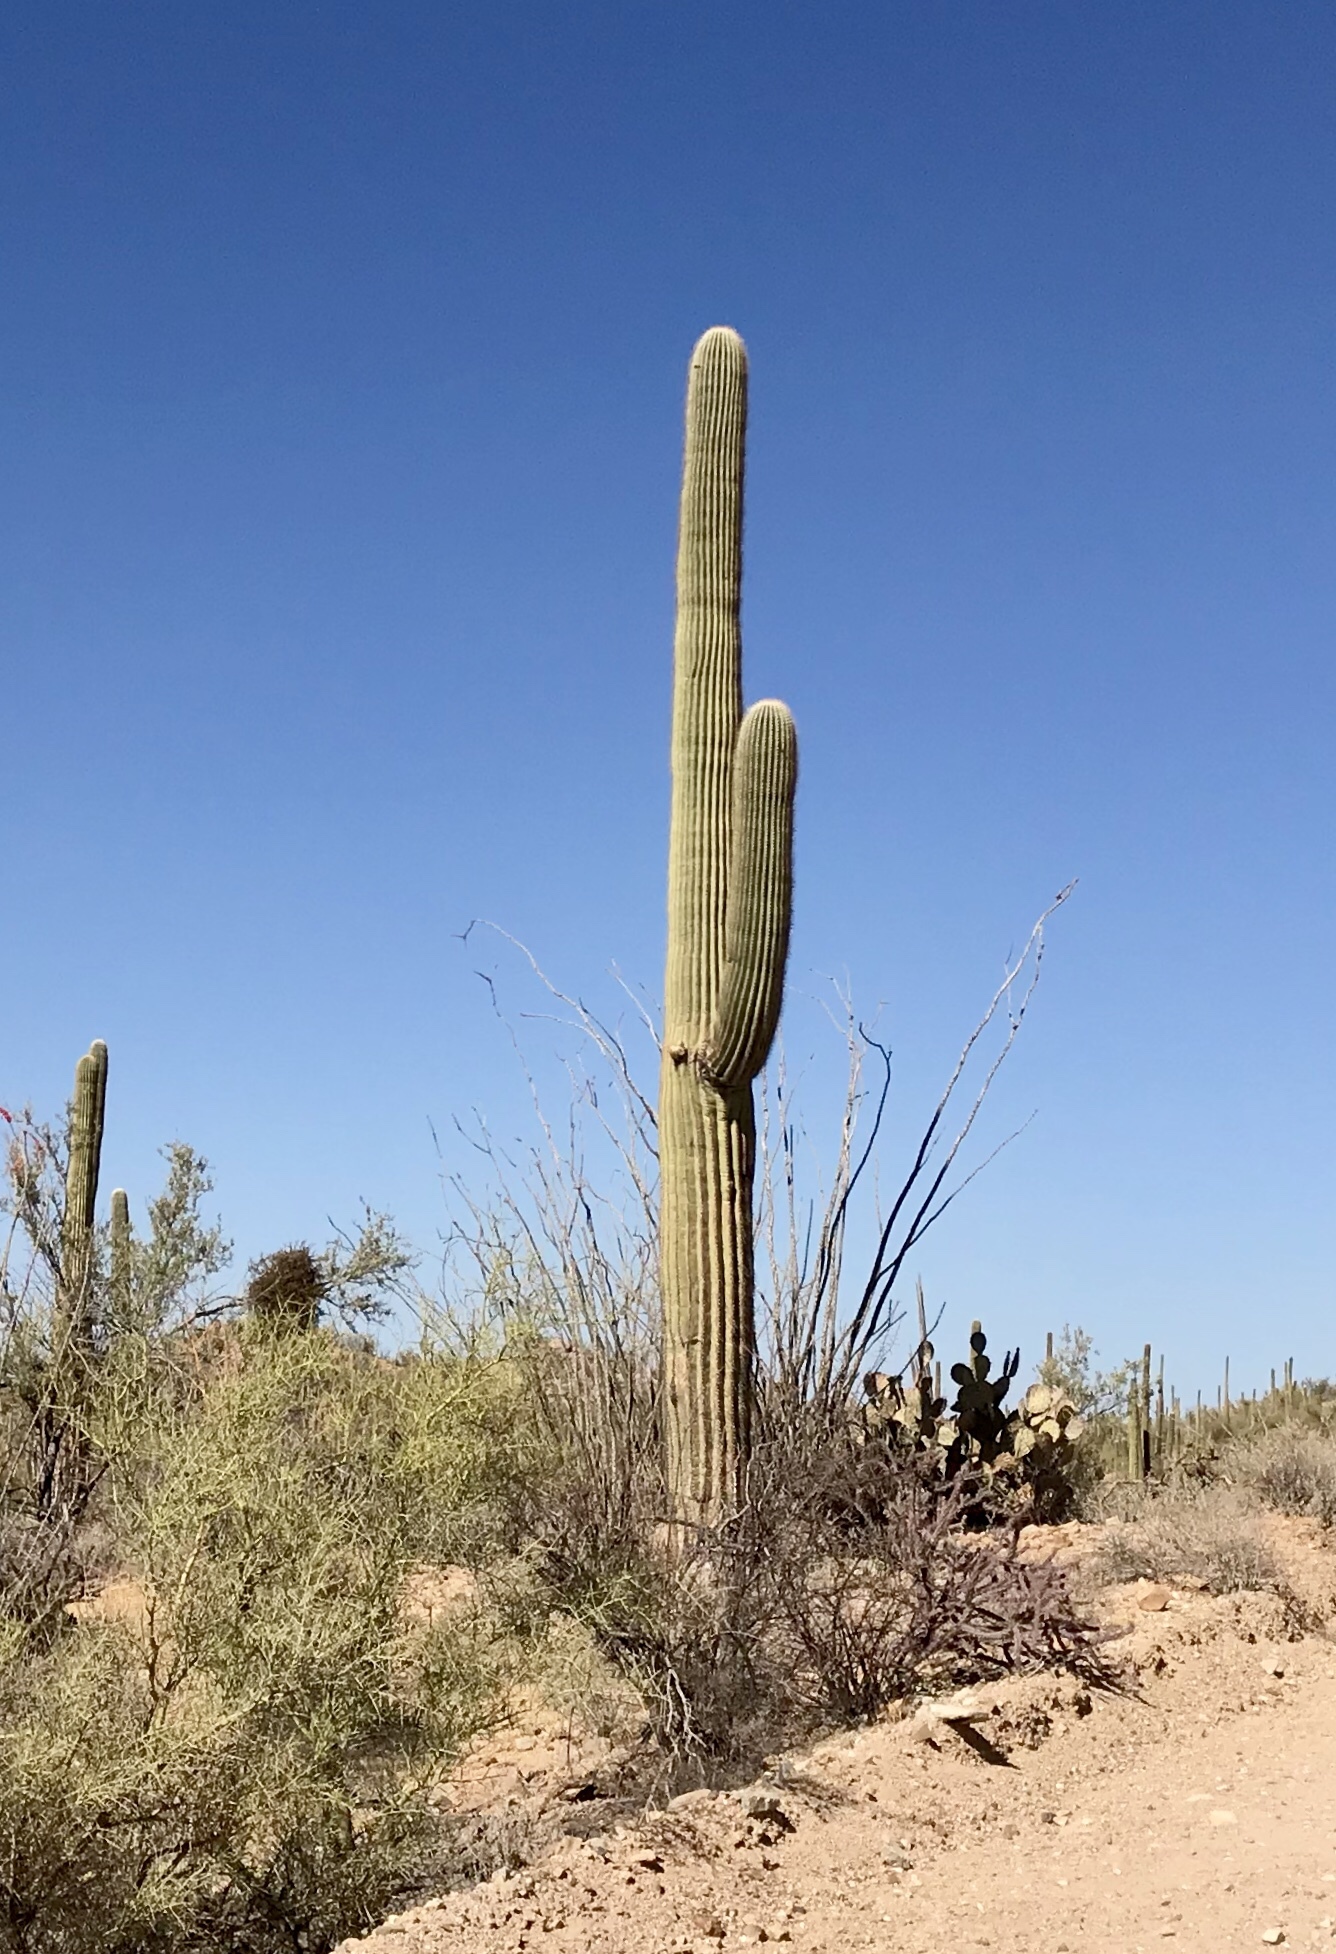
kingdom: Plantae
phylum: Tracheophyta
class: Magnoliopsida
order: Caryophyllales
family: Cactaceae
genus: Carnegiea
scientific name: Carnegiea gigantea
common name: Saguaro
